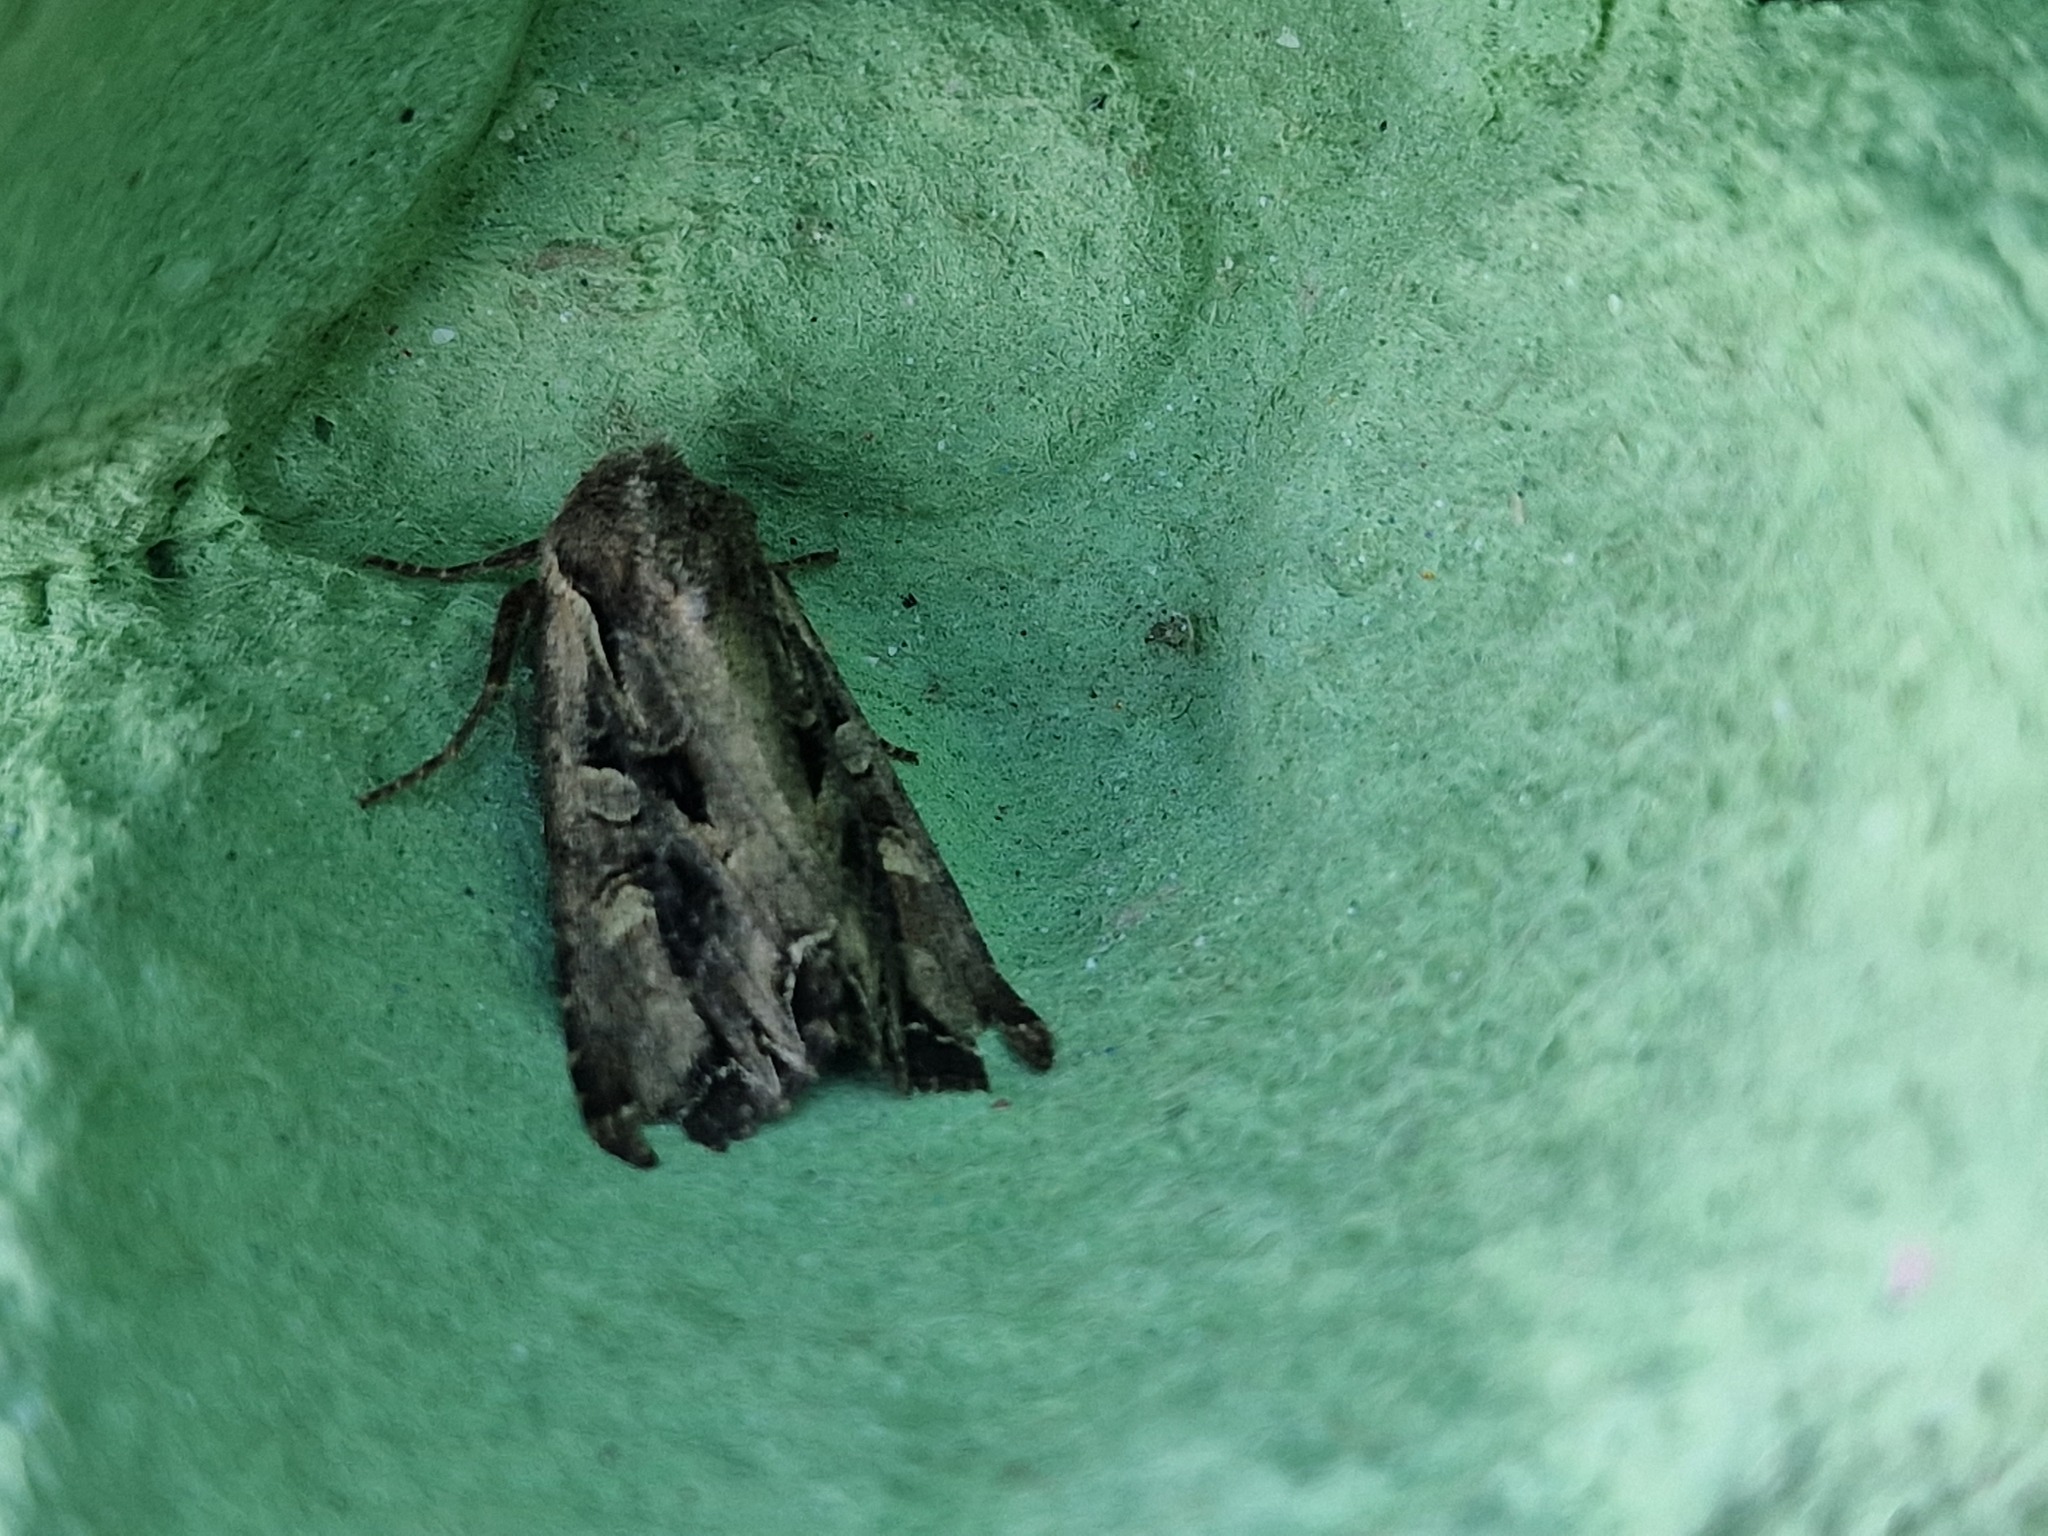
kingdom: Animalia
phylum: Arthropoda
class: Insecta
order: Lepidoptera
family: Noctuidae
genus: Lacanobia
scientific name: Lacanobia suasa
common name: Dog's tooth
